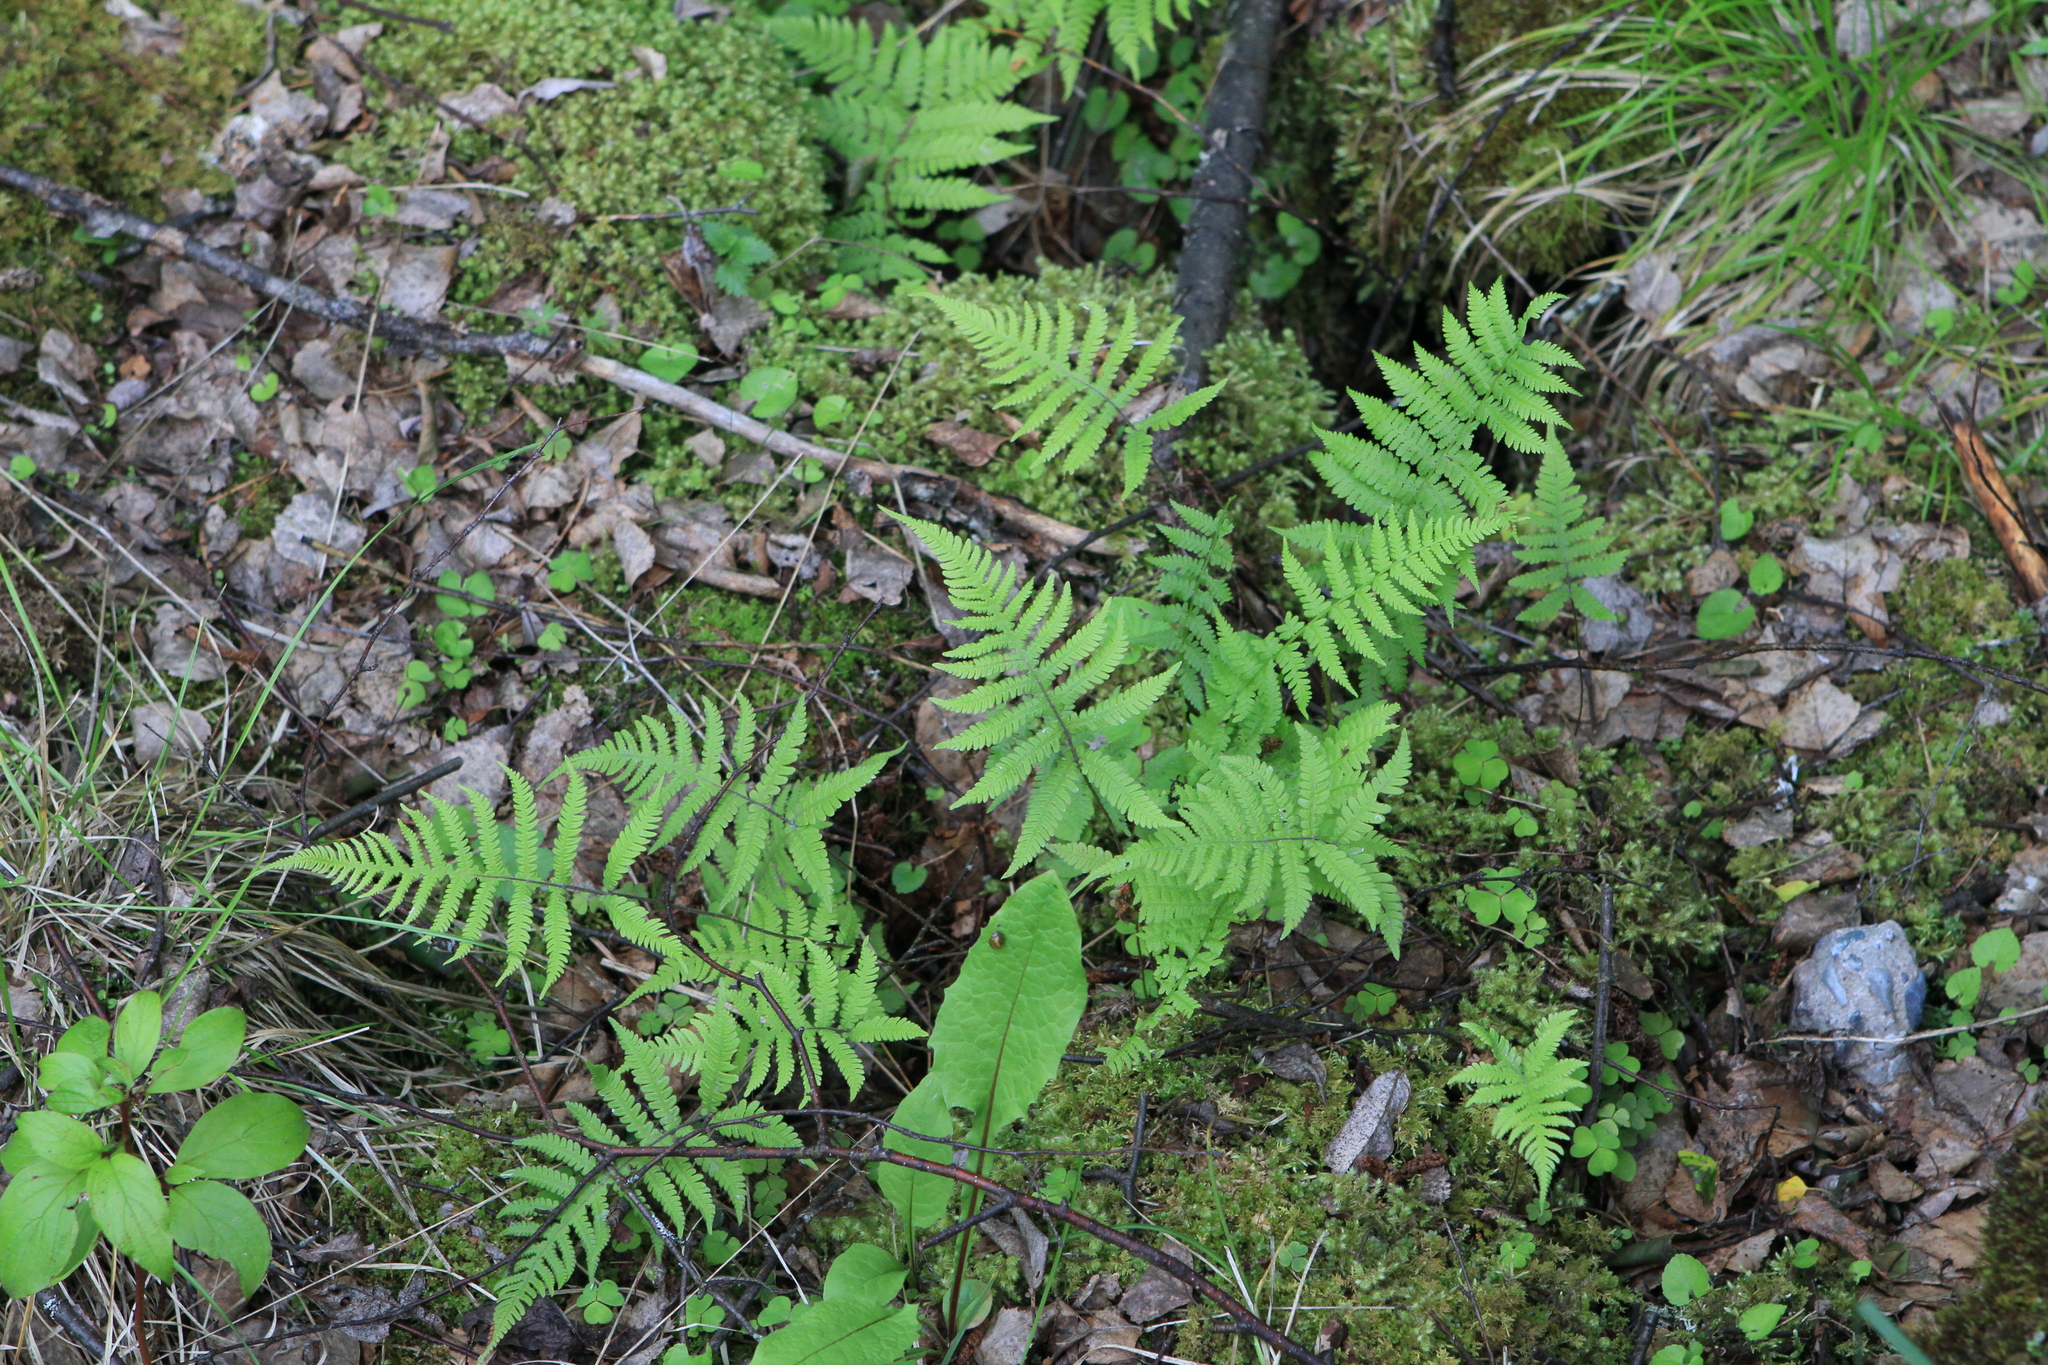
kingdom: Plantae
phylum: Tracheophyta
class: Polypodiopsida
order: Polypodiales
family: Thelypteridaceae
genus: Phegopteris
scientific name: Phegopteris connectilis
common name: Beech fern
